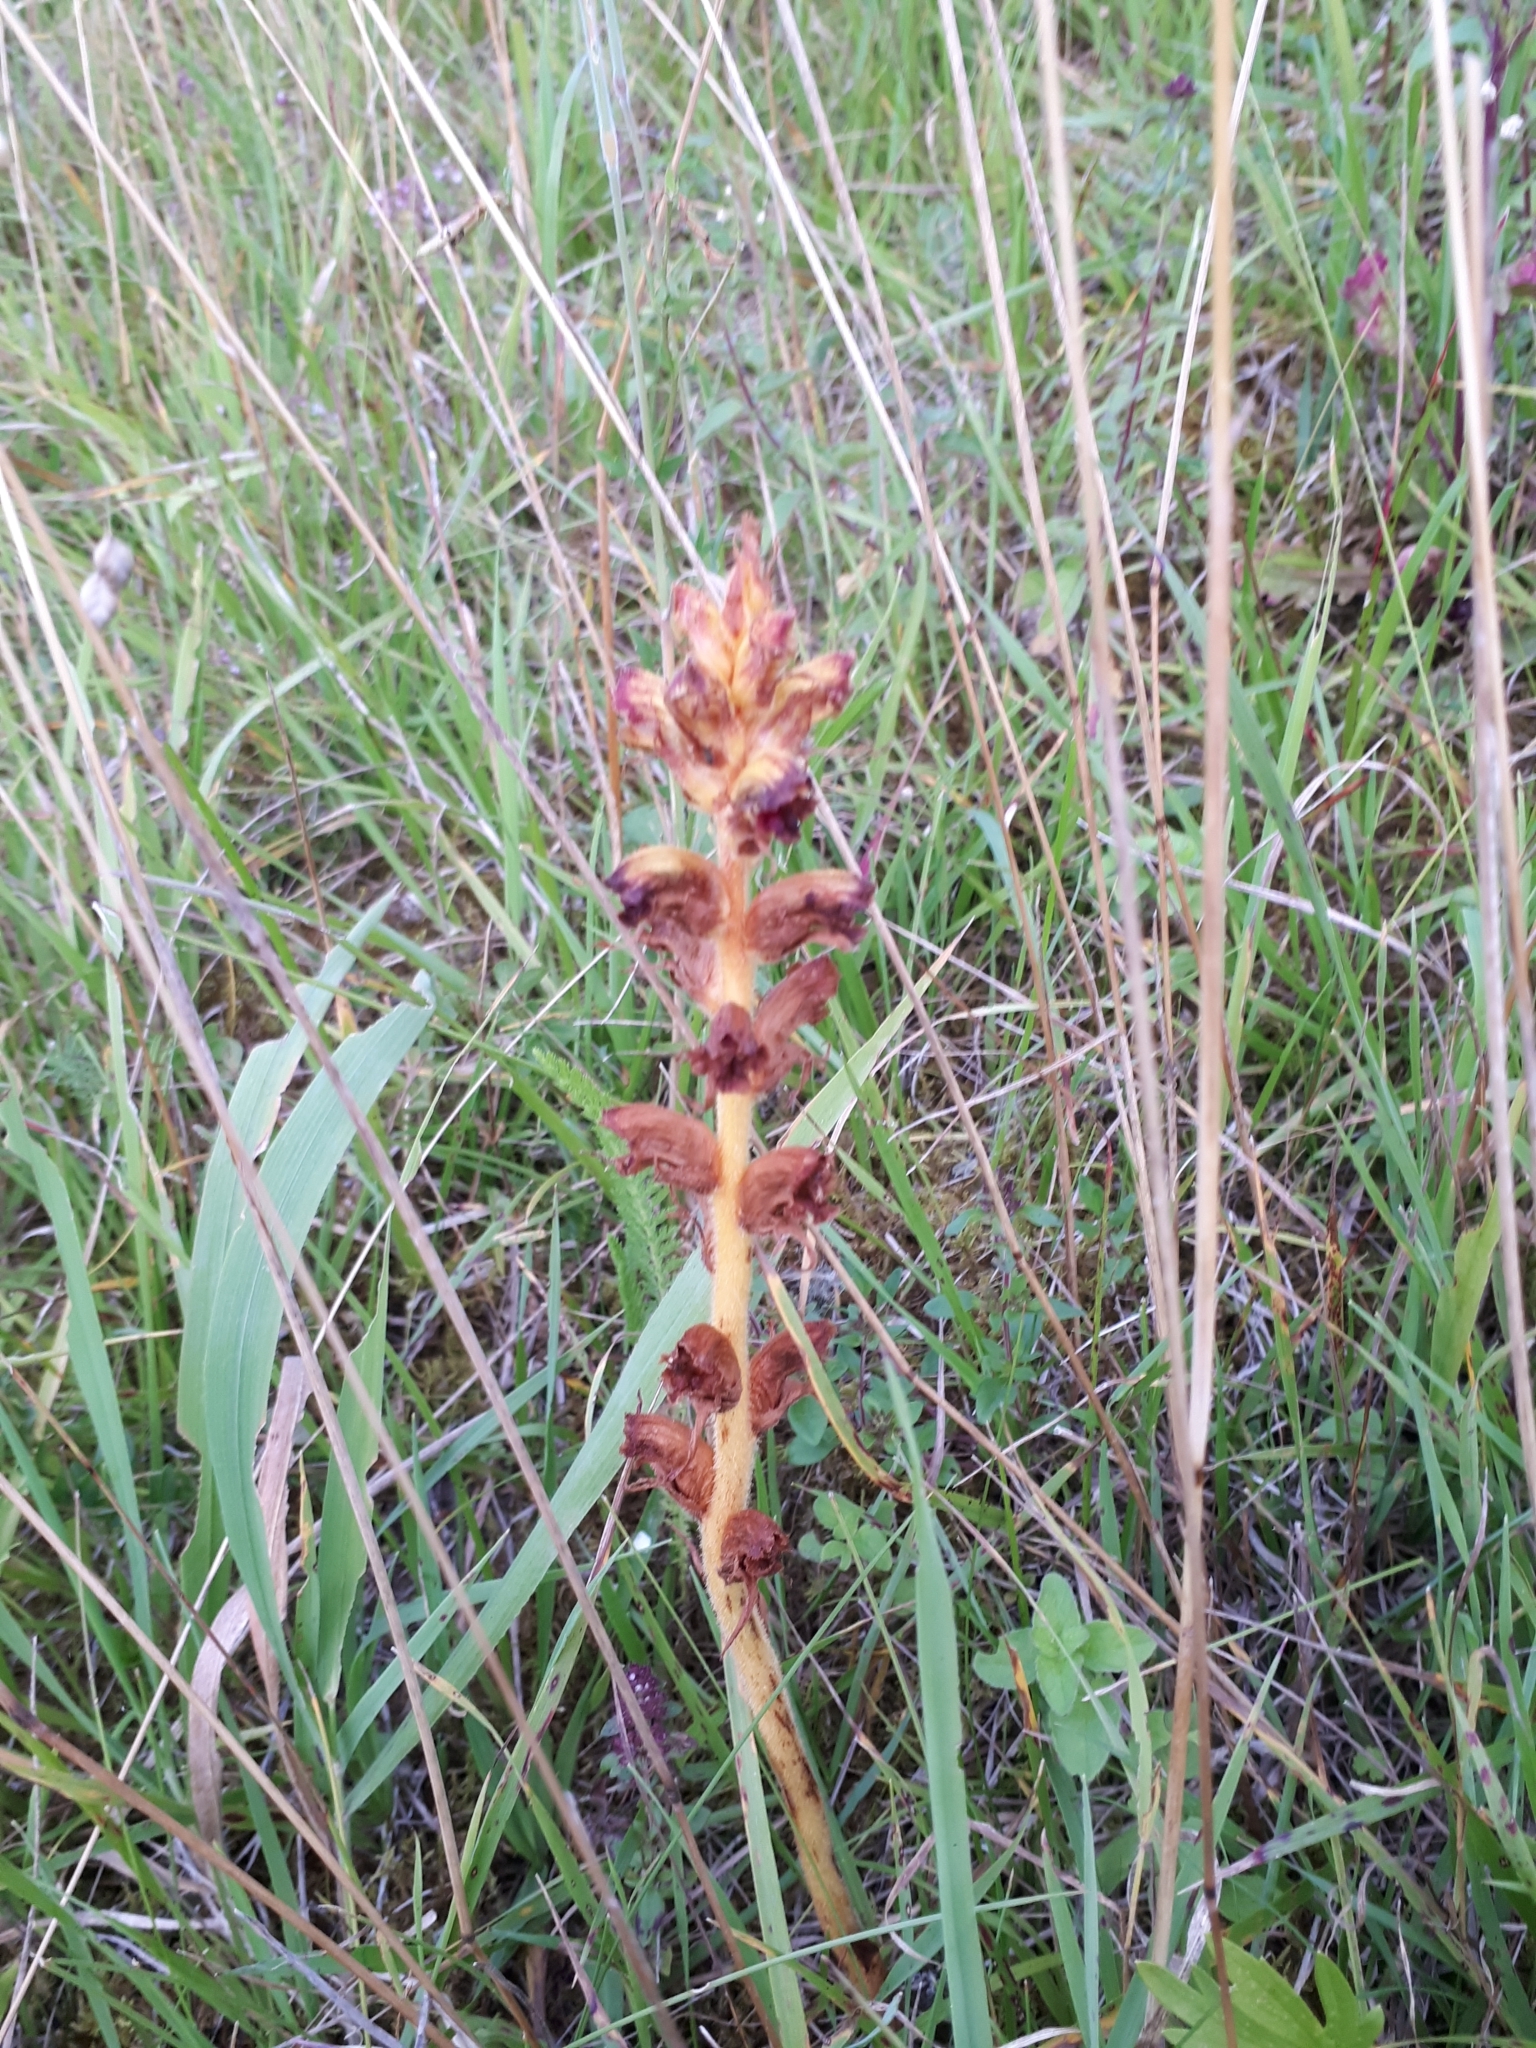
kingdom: Plantae
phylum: Tracheophyta
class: Magnoliopsida
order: Lamiales
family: Orobanchaceae
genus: Orobanche
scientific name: Orobanche gracilis
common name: Slender broomrape
